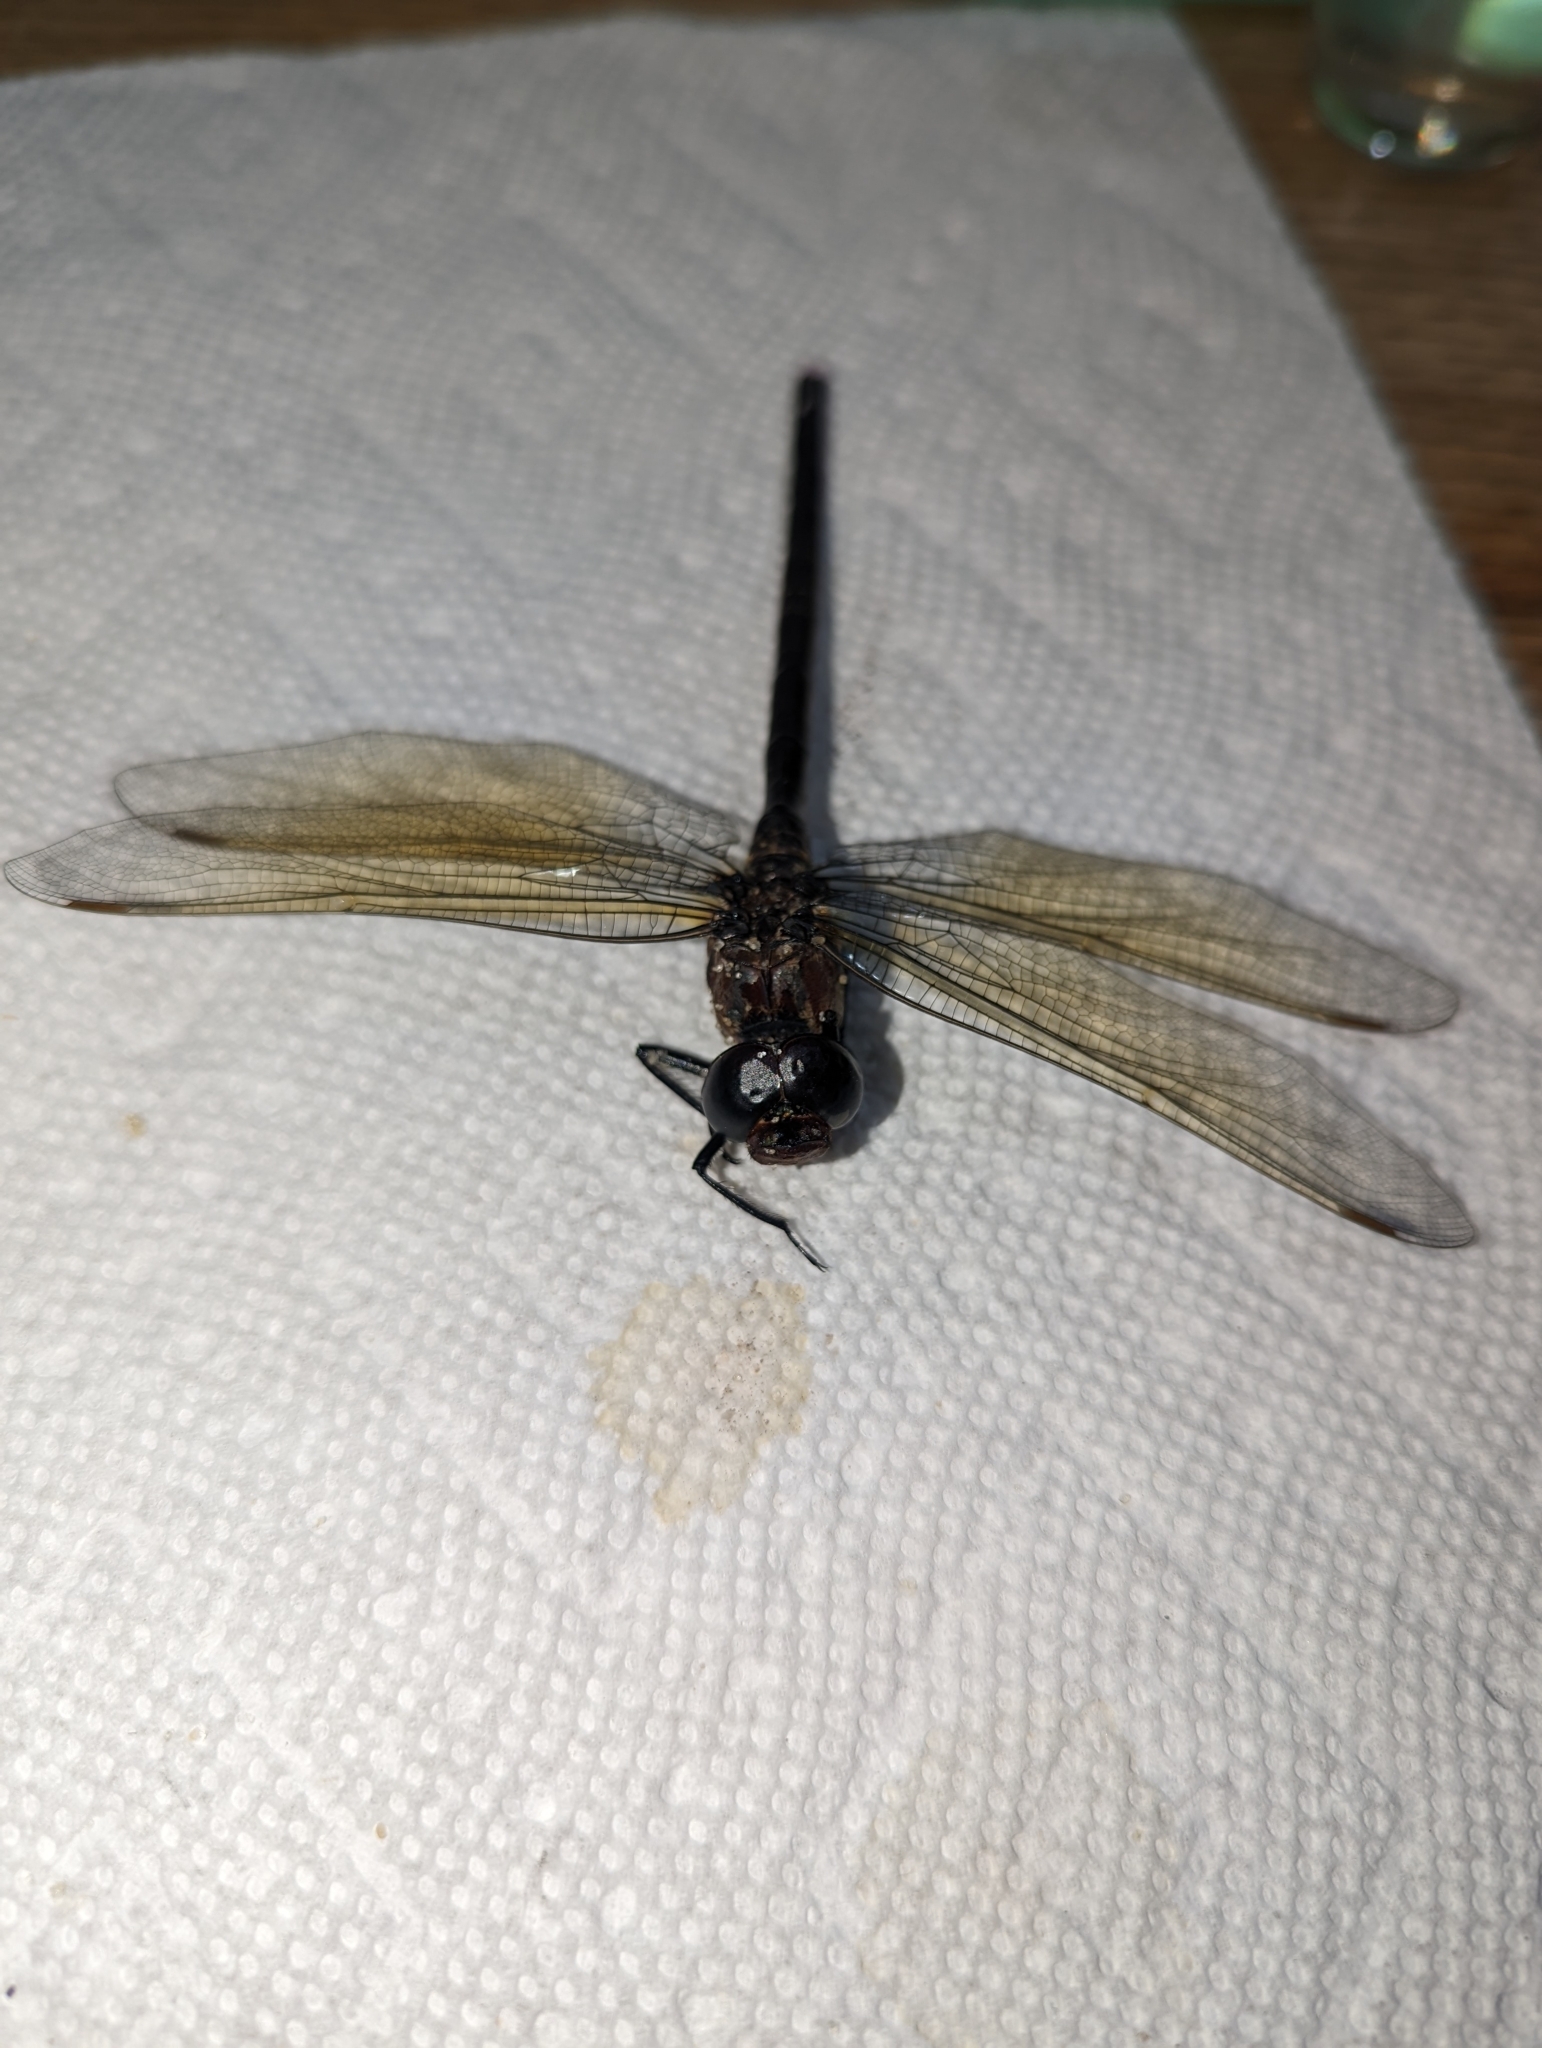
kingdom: Animalia
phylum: Arthropoda
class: Insecta
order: Odonata
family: Aeshnidae
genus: Epiaeschna
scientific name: Epiaeschna heros
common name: Swamp darner
